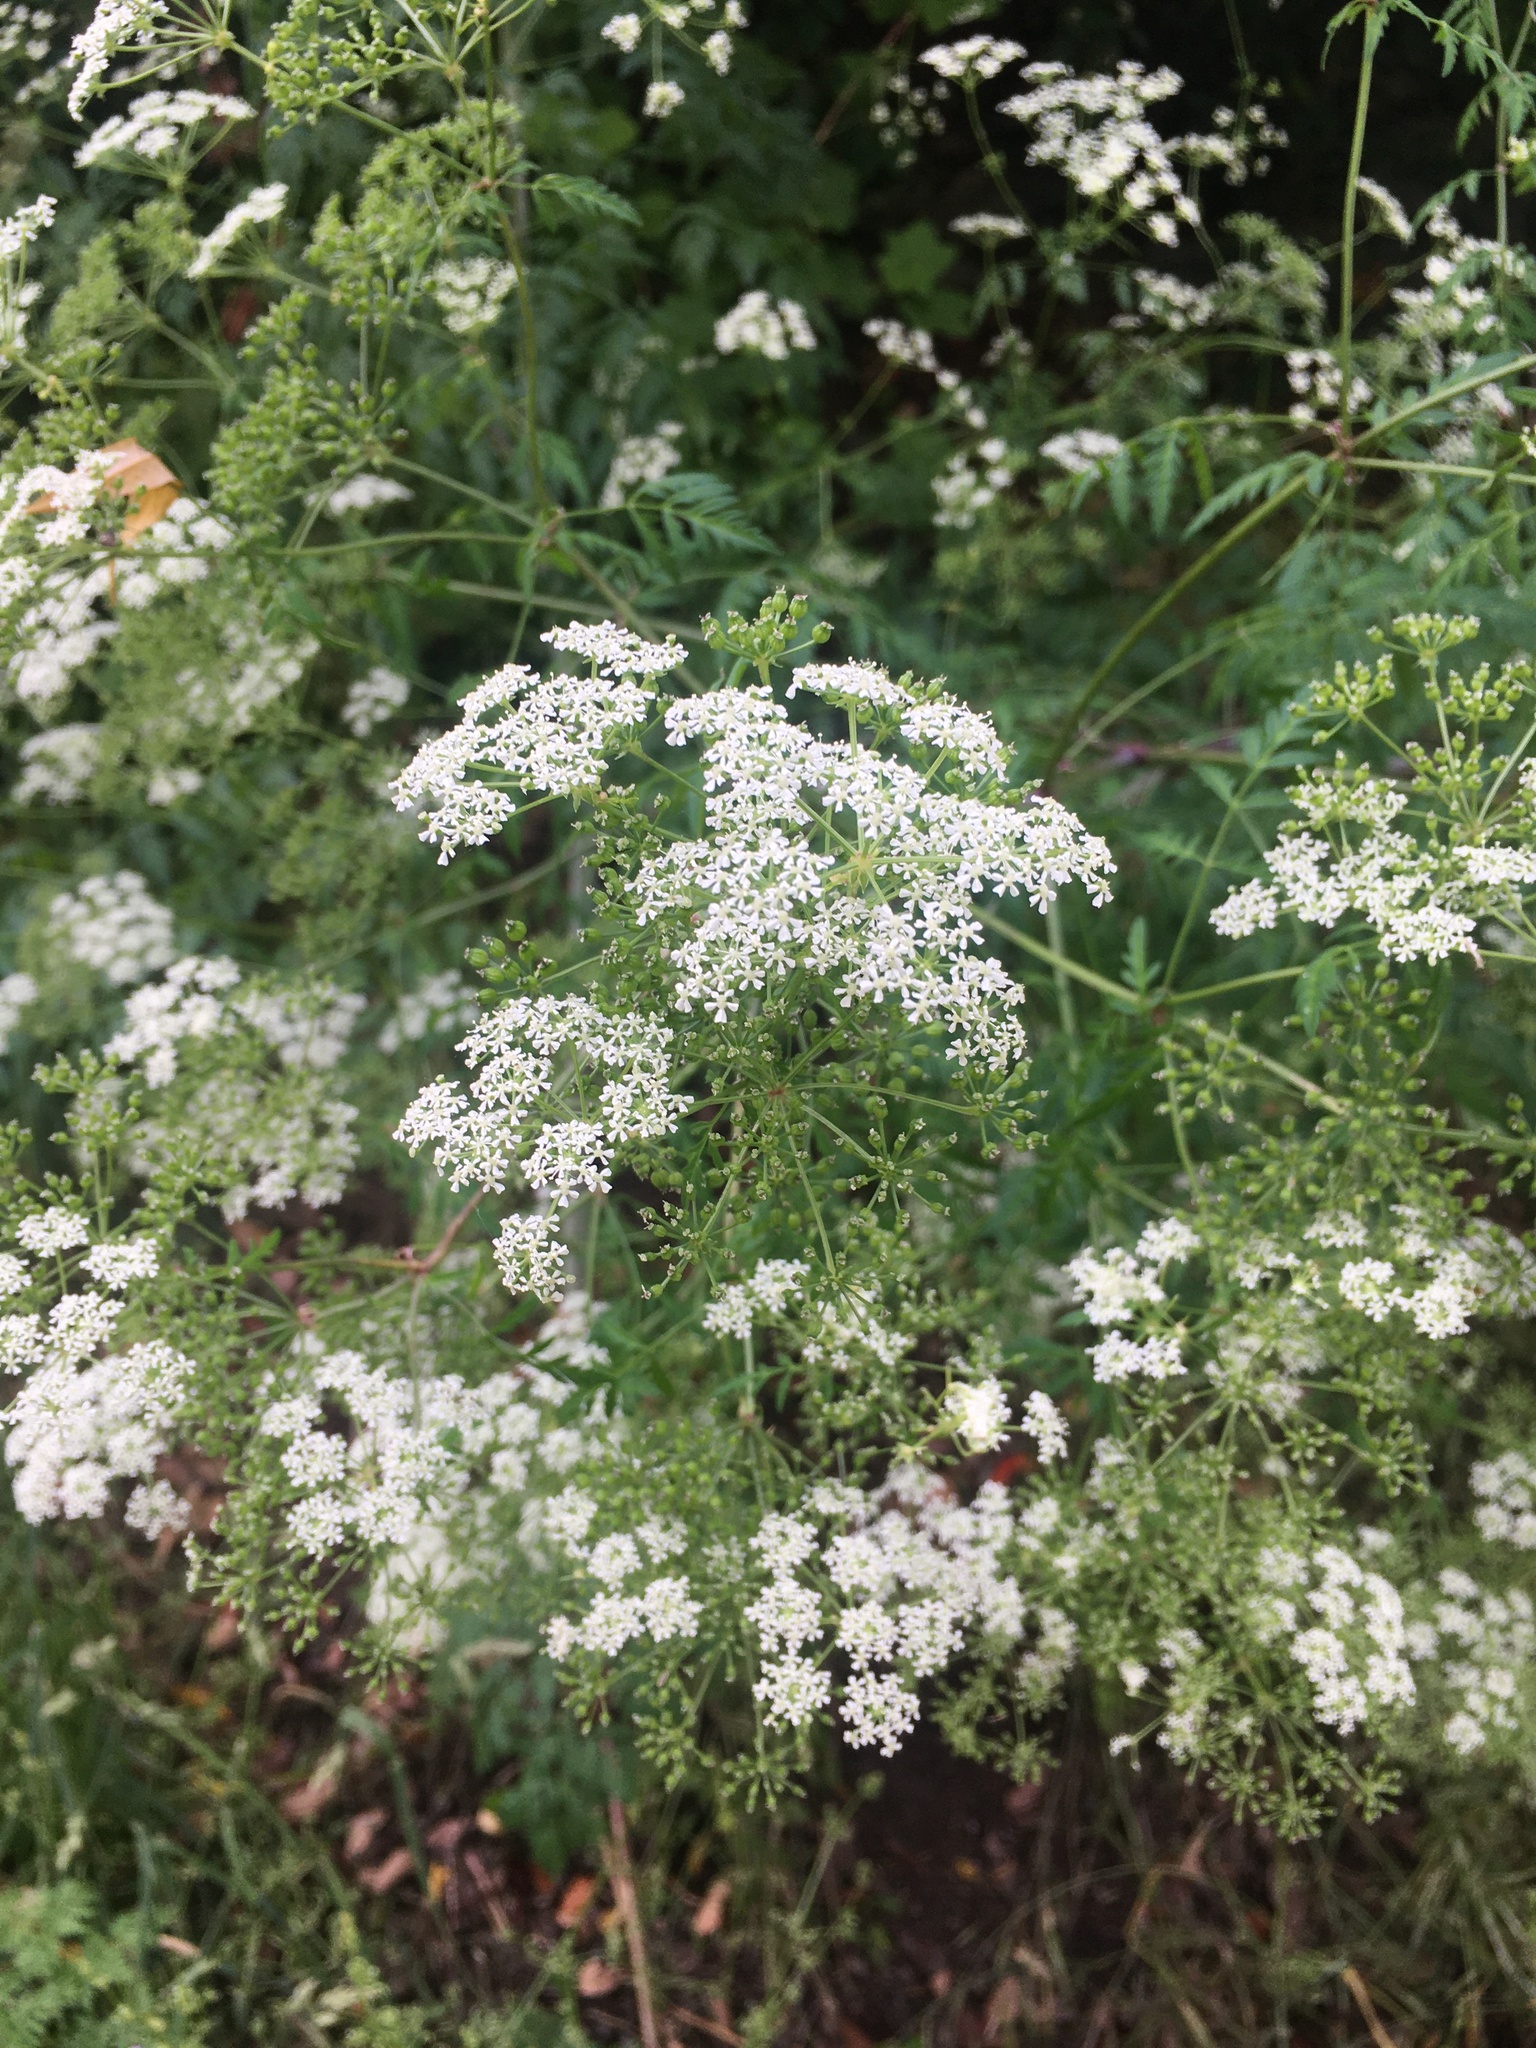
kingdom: Plantae
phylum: Tracheophyta
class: Magnoliopsida
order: Apiales
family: Apiaceae
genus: Conium
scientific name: Conium maculatum
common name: Hemlock
